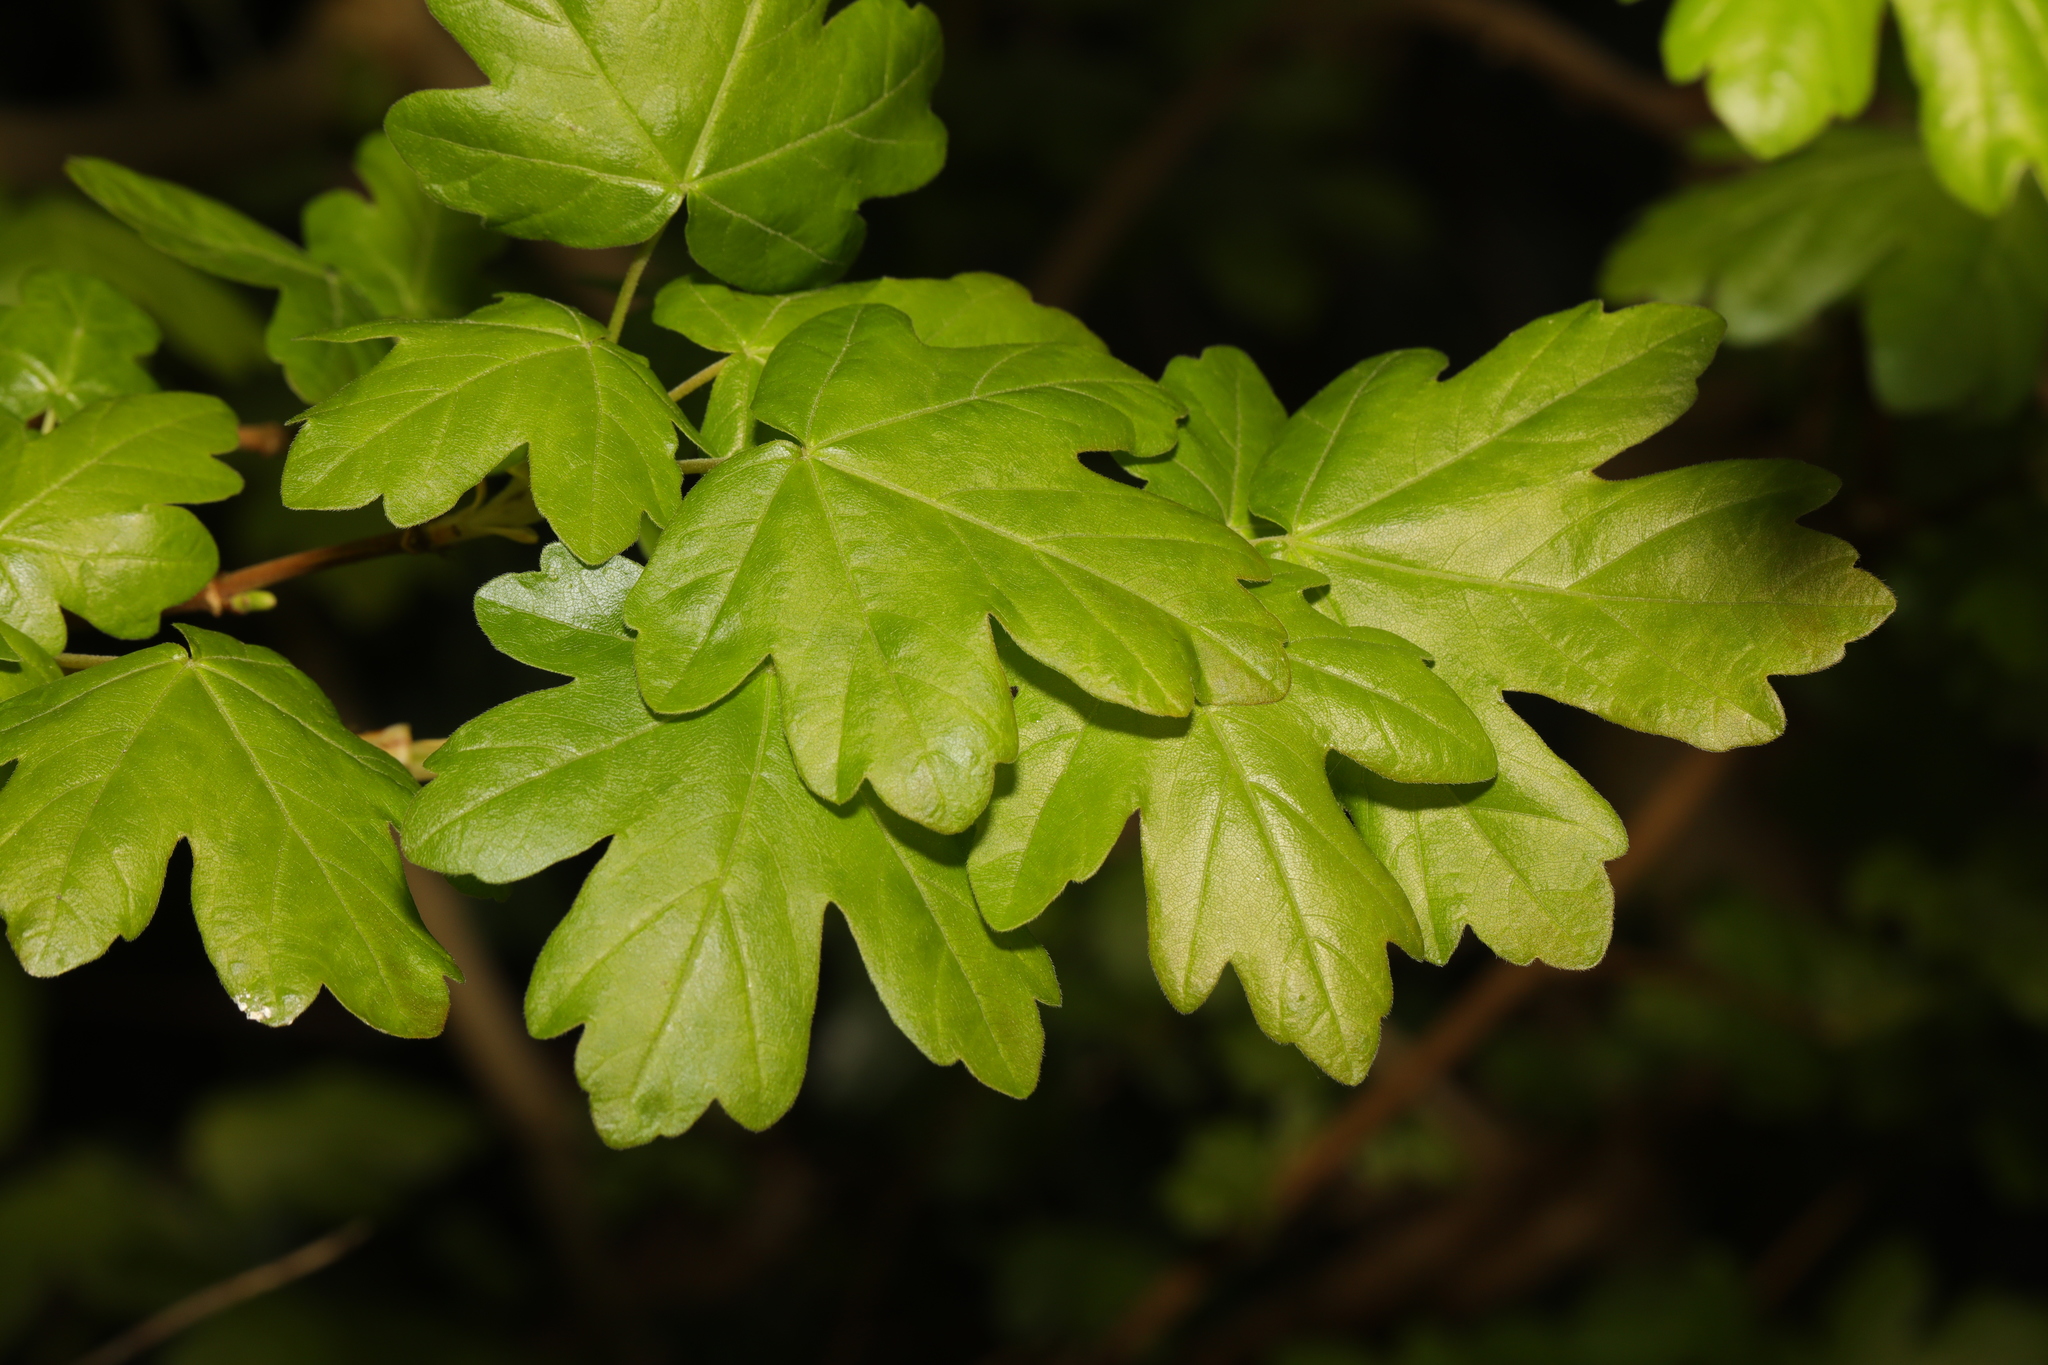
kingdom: Plantae
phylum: Tracheophyta
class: Magnoliopsida
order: Sapindales
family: Sapindaceae
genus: Acer
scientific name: Acer campestre
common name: Field maple
